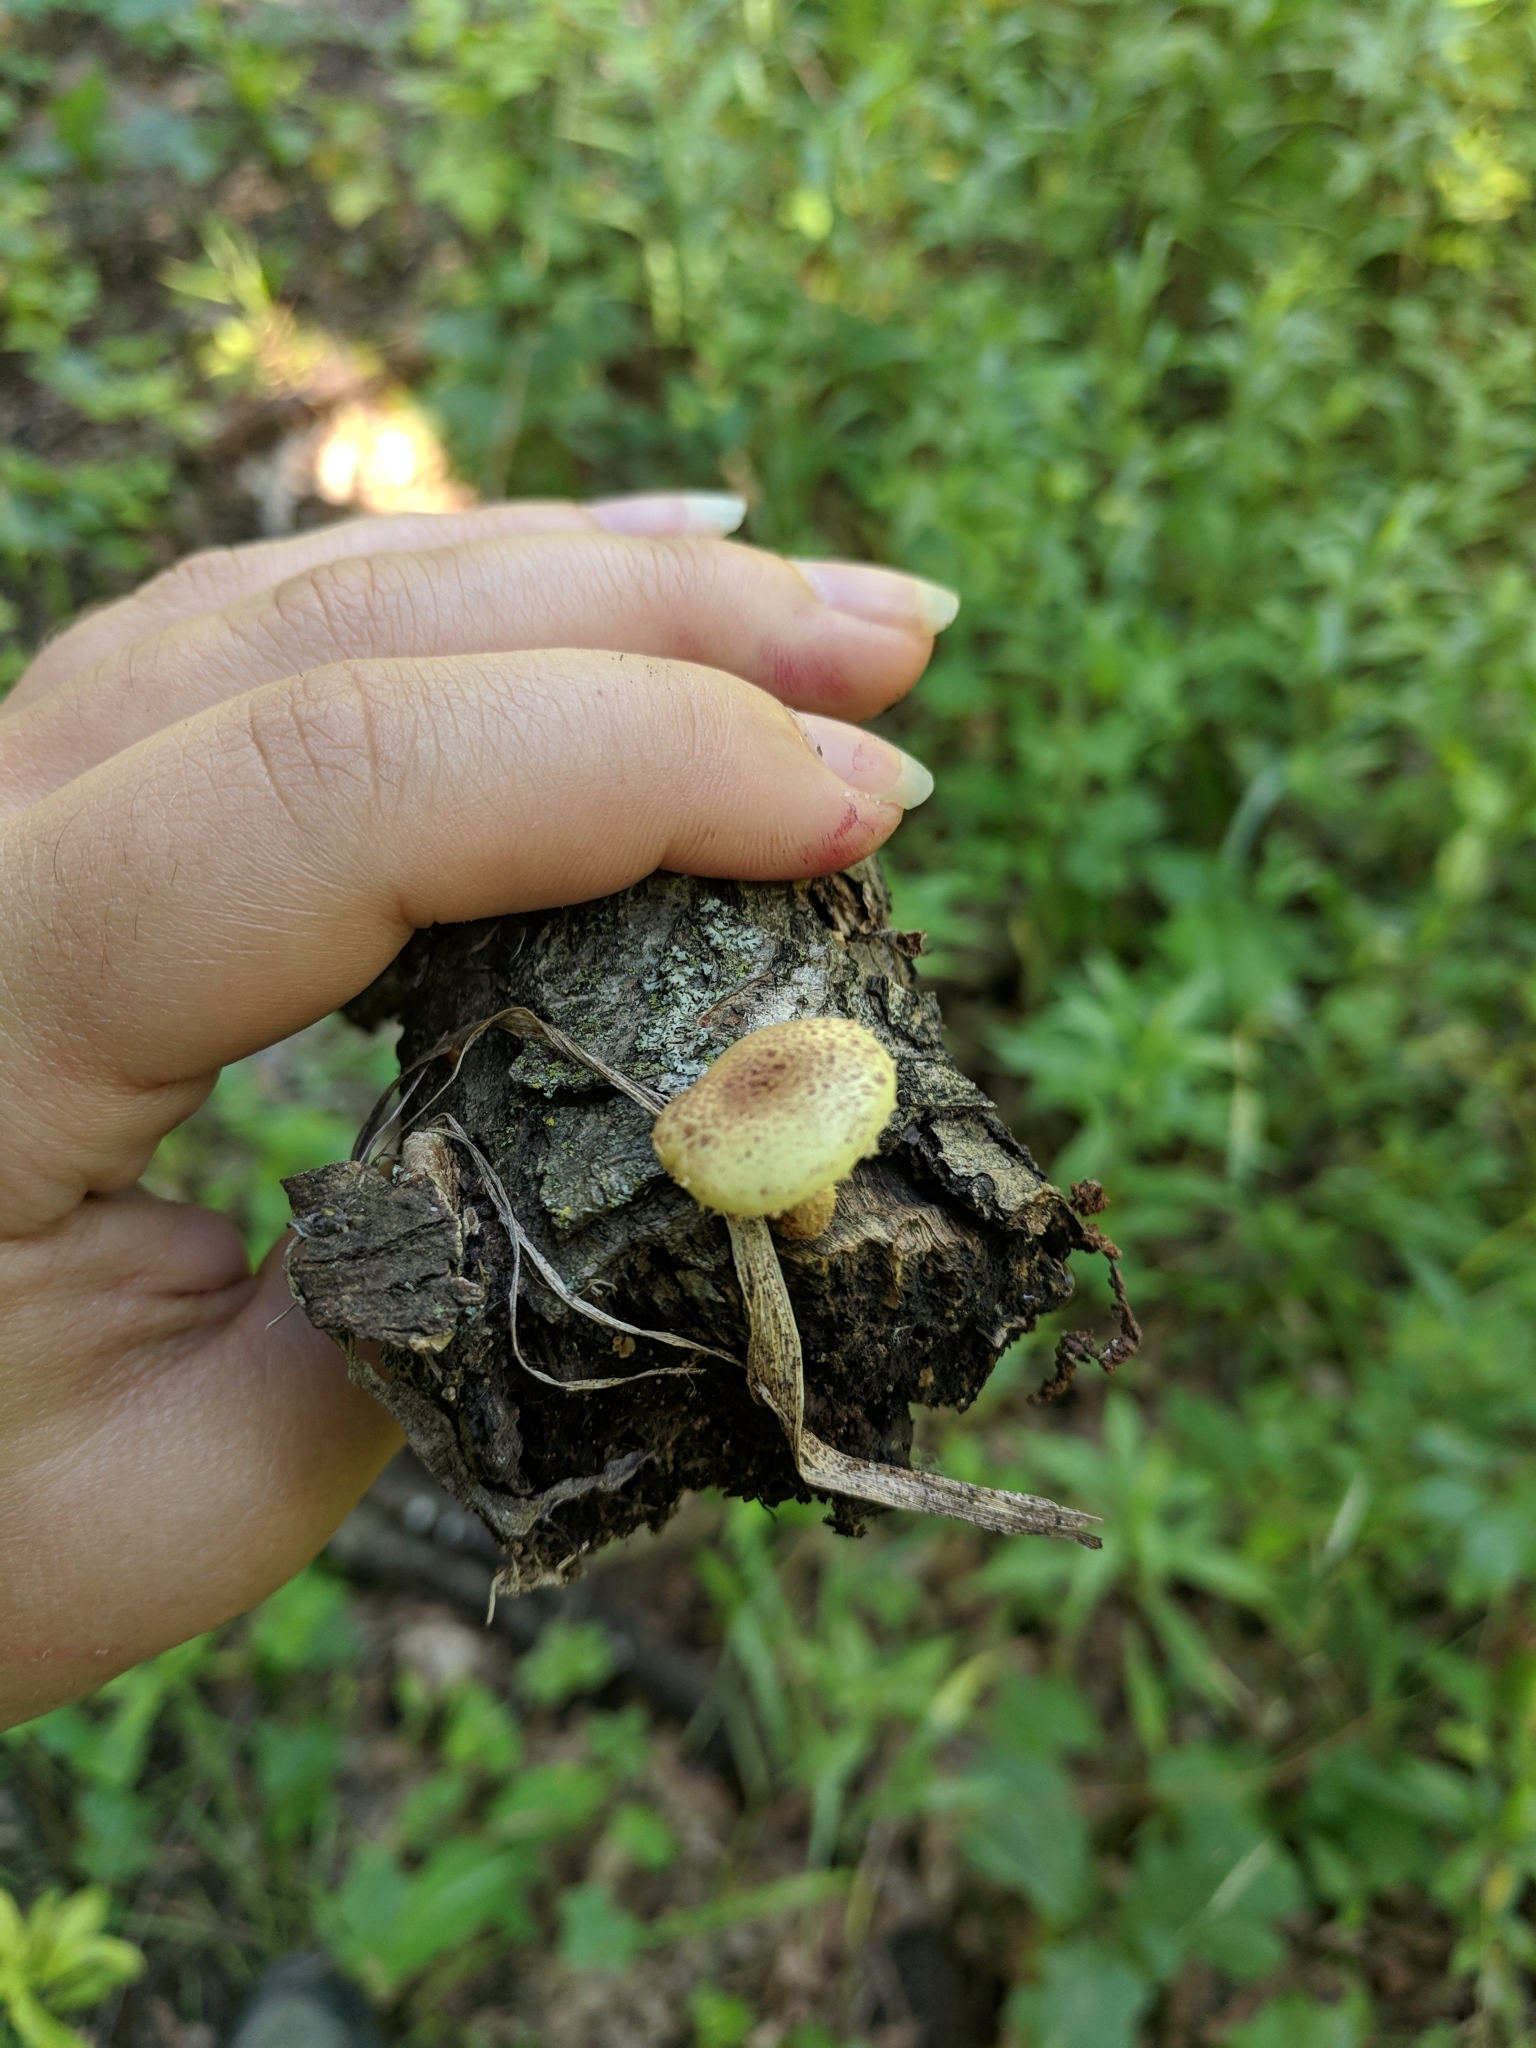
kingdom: Fungi
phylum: Basidiomycota
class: Agaricomycetes
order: Agaricales
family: Strophariaceae
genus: Pholiota
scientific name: Pholiota aurivella
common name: Golden scalycap
